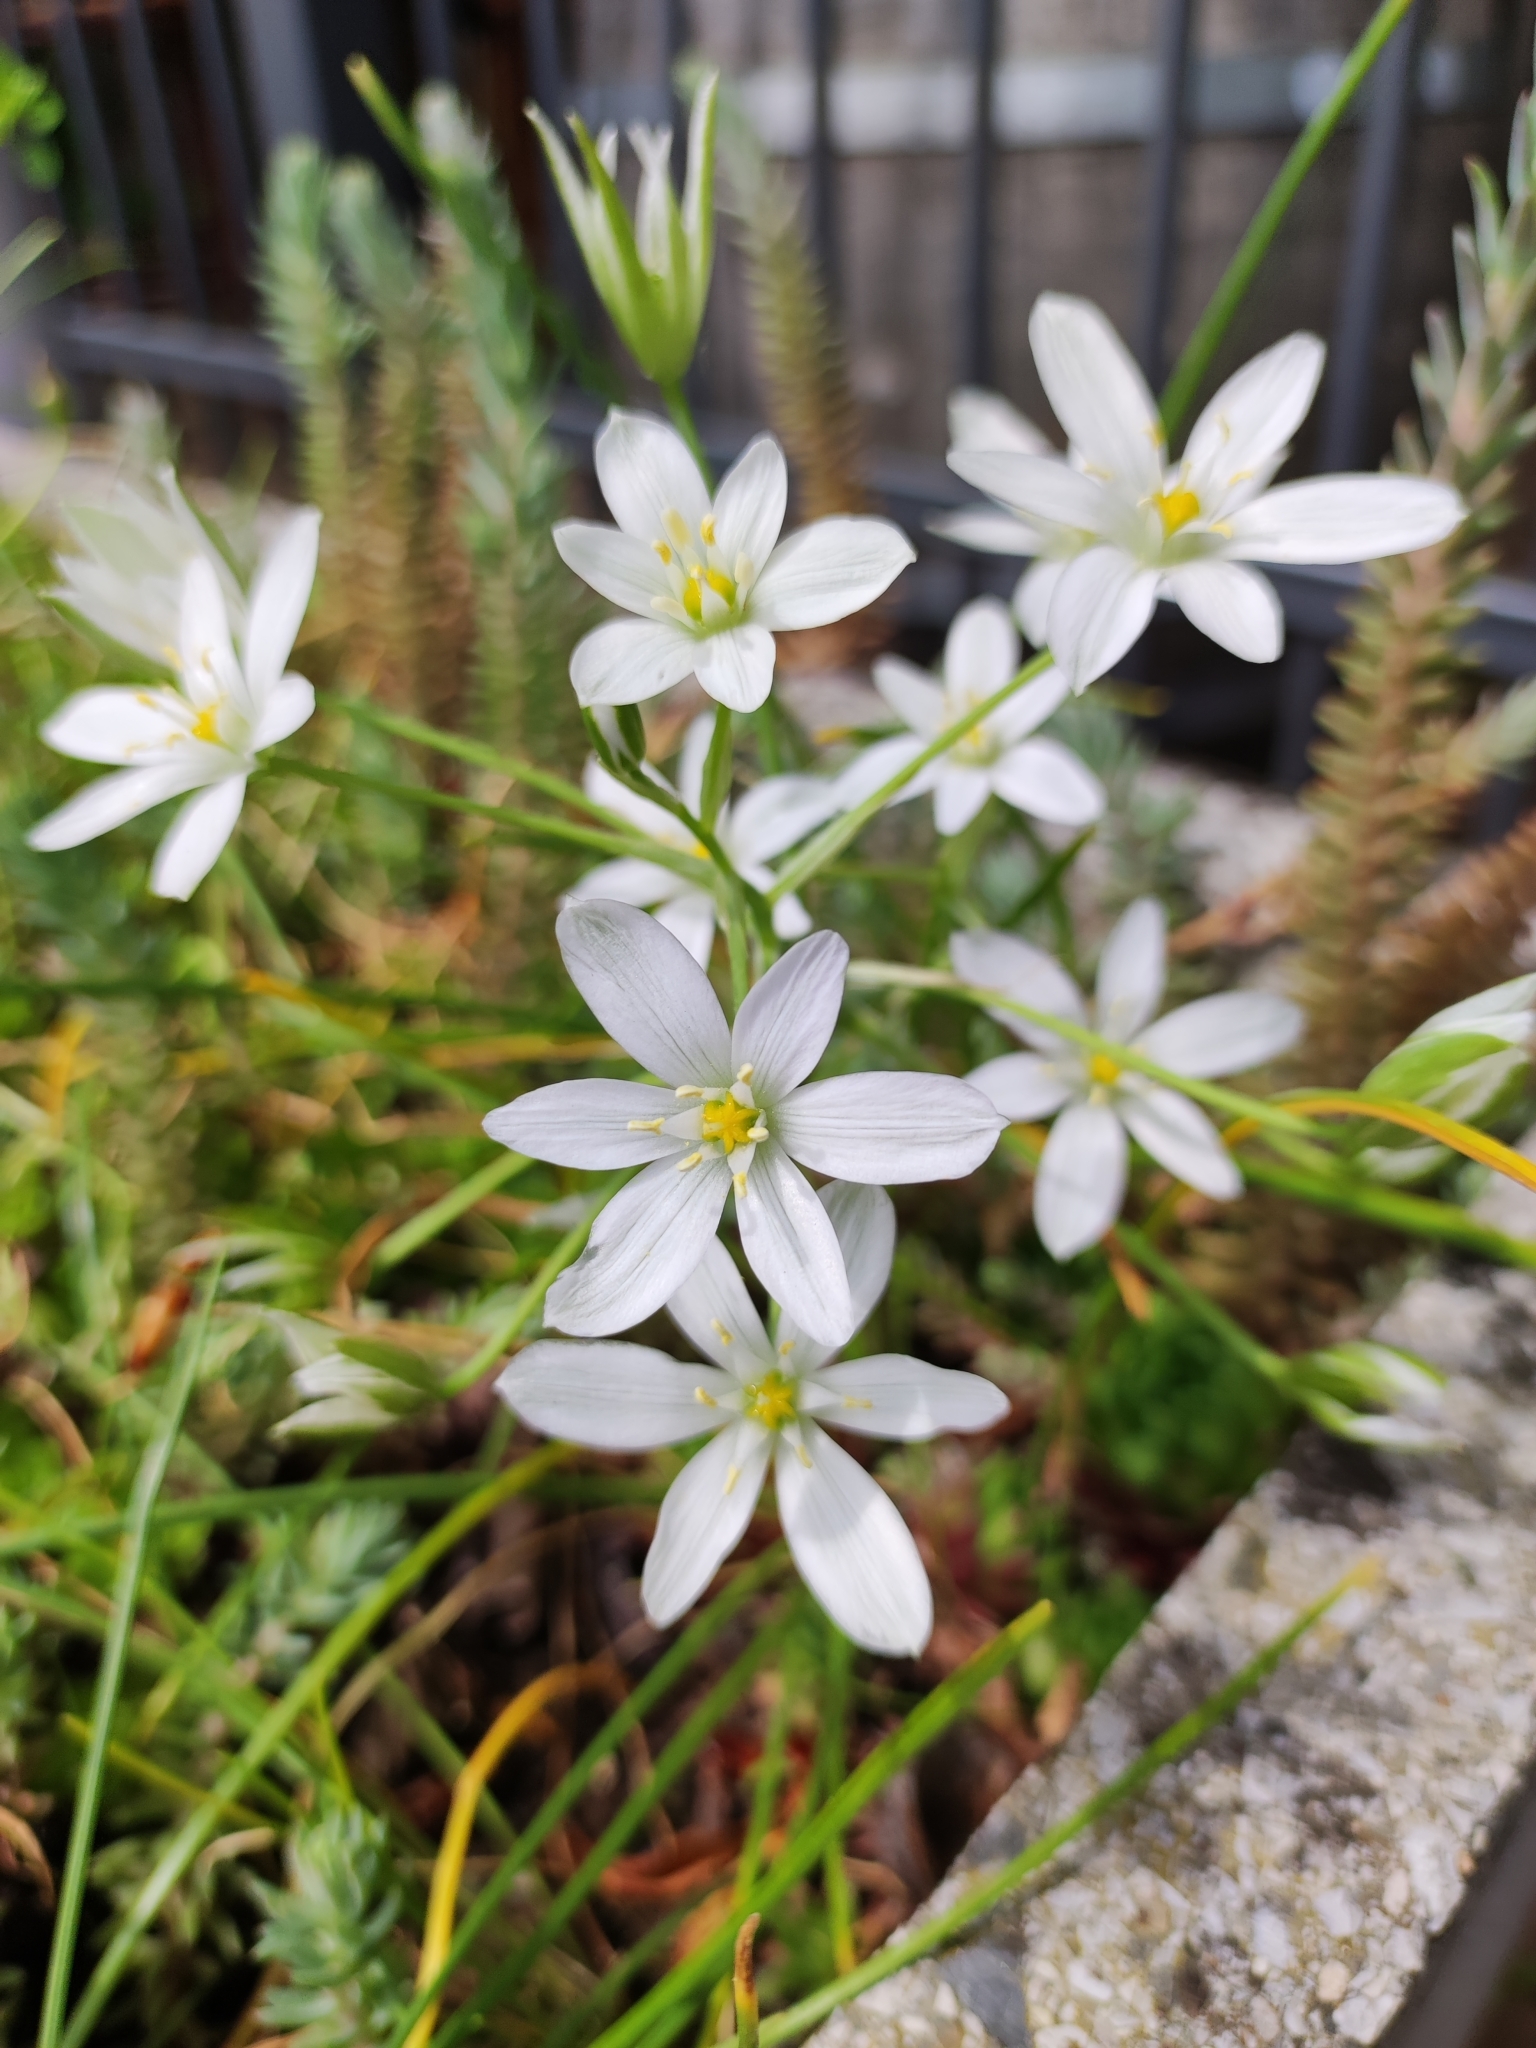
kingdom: Plantae
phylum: Tracheophyta
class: Liliopsida
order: Asparagales
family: Asparagaceae
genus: Ornithogalum
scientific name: Ornithogalum umbellatum
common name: Garden star-of-bethlehem
